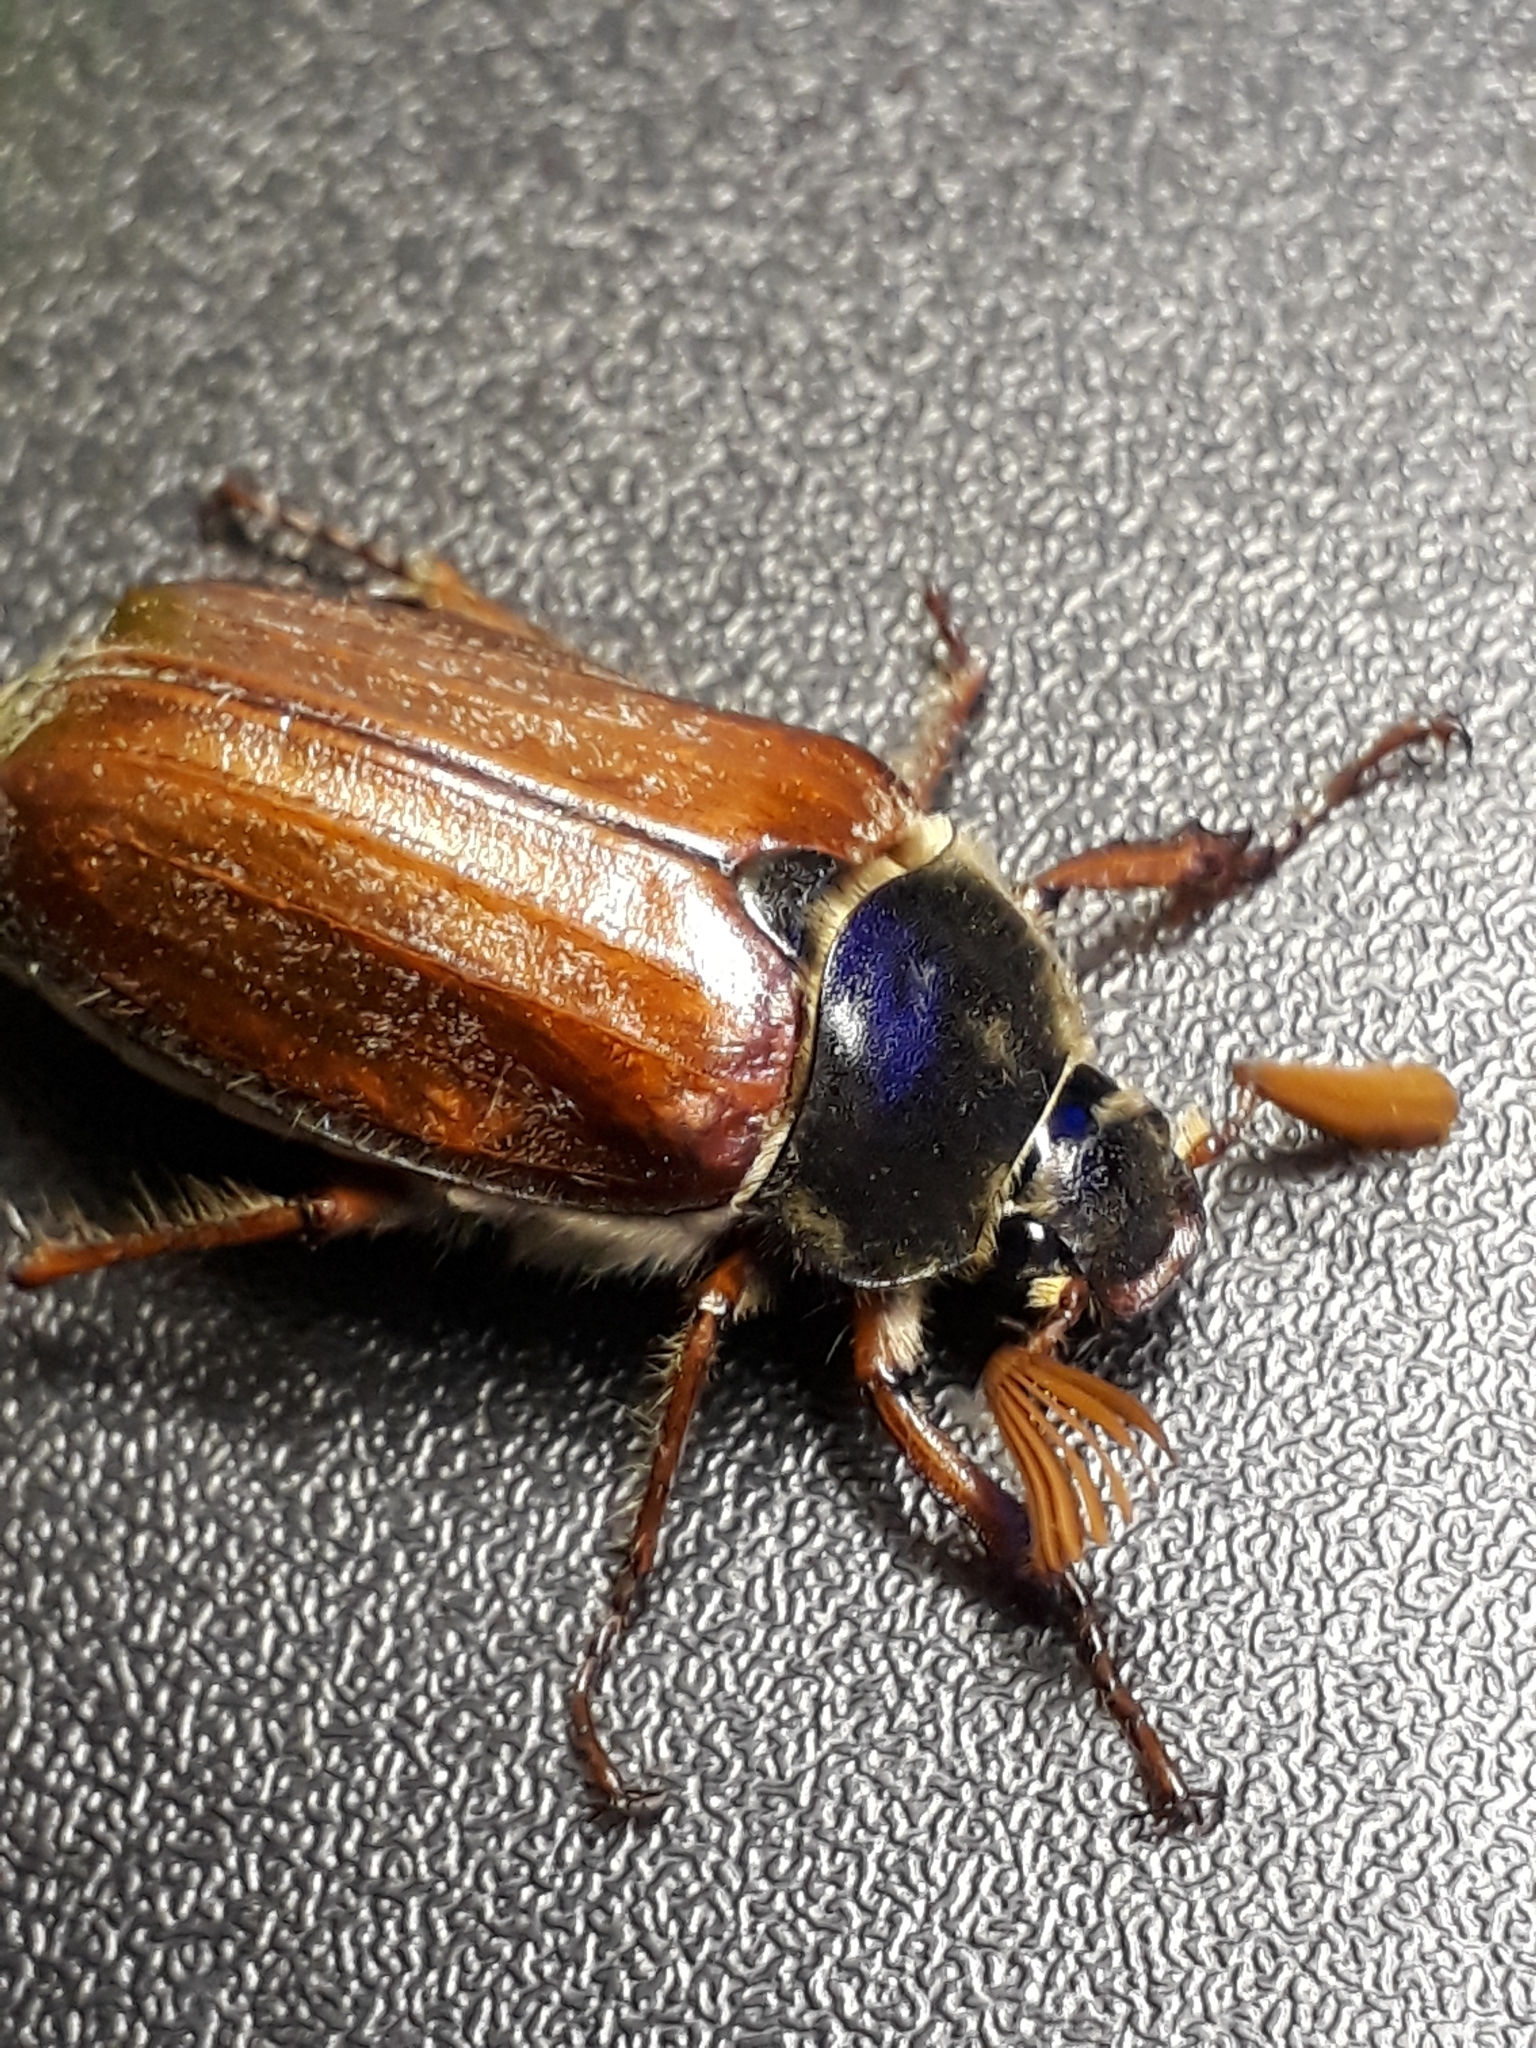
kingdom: Animalia
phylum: Arthropoda
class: Insecta
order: Coleoptera
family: Scarabaeidae
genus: Melolontha
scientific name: Melolontha melolontha
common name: Cockchafer maybeetle
